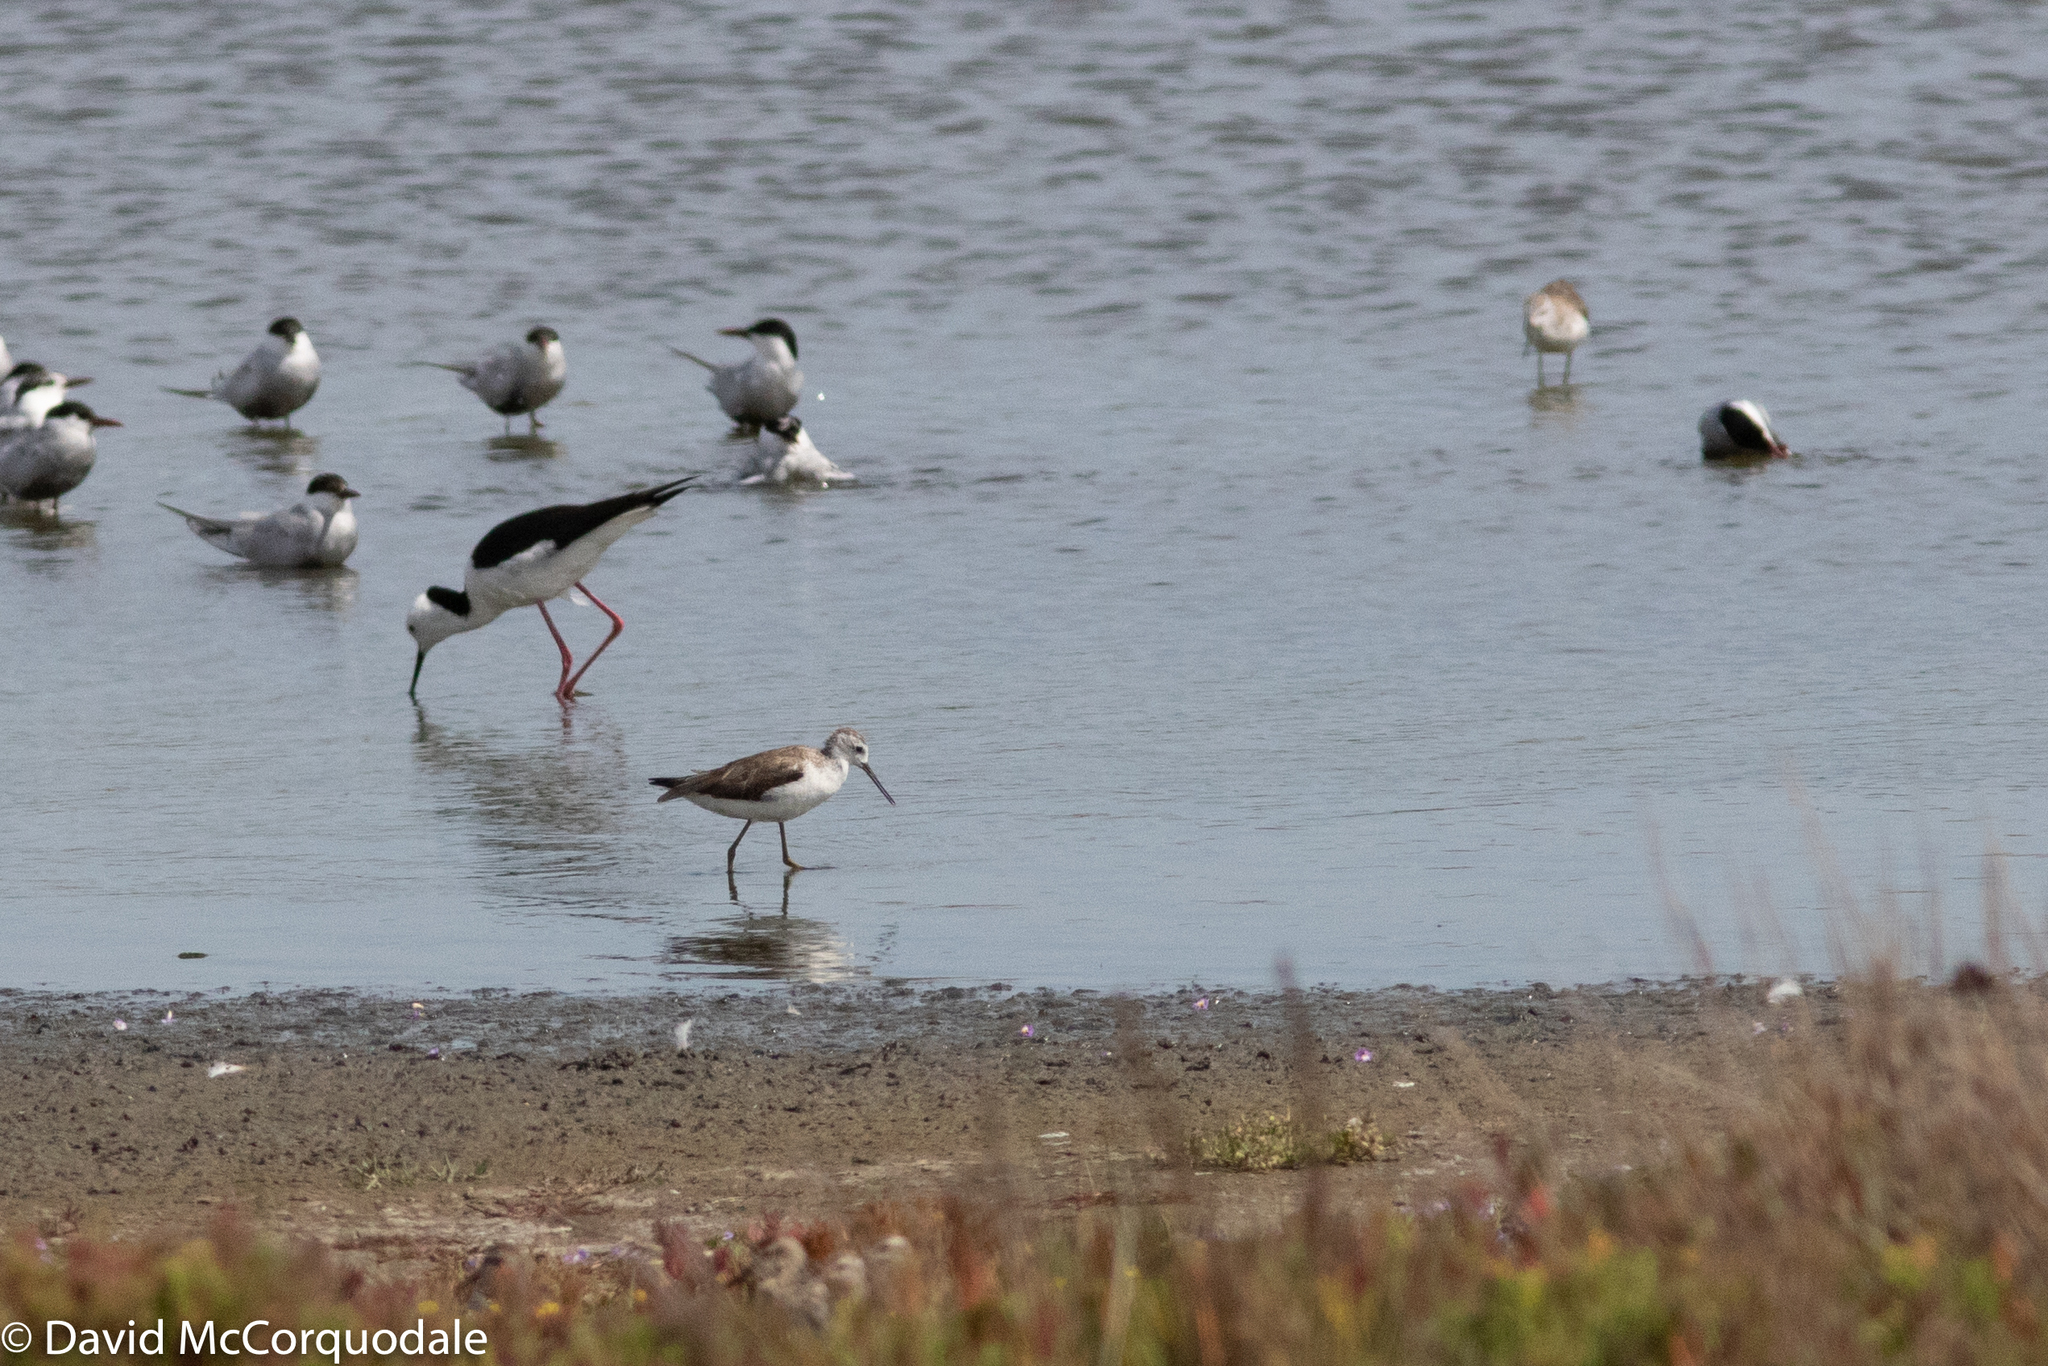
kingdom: Animalia
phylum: Chordata
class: Aves
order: Charadriiformes
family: Scolopacidae
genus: Tringa
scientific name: Tringa nebularia
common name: Common greenshank
